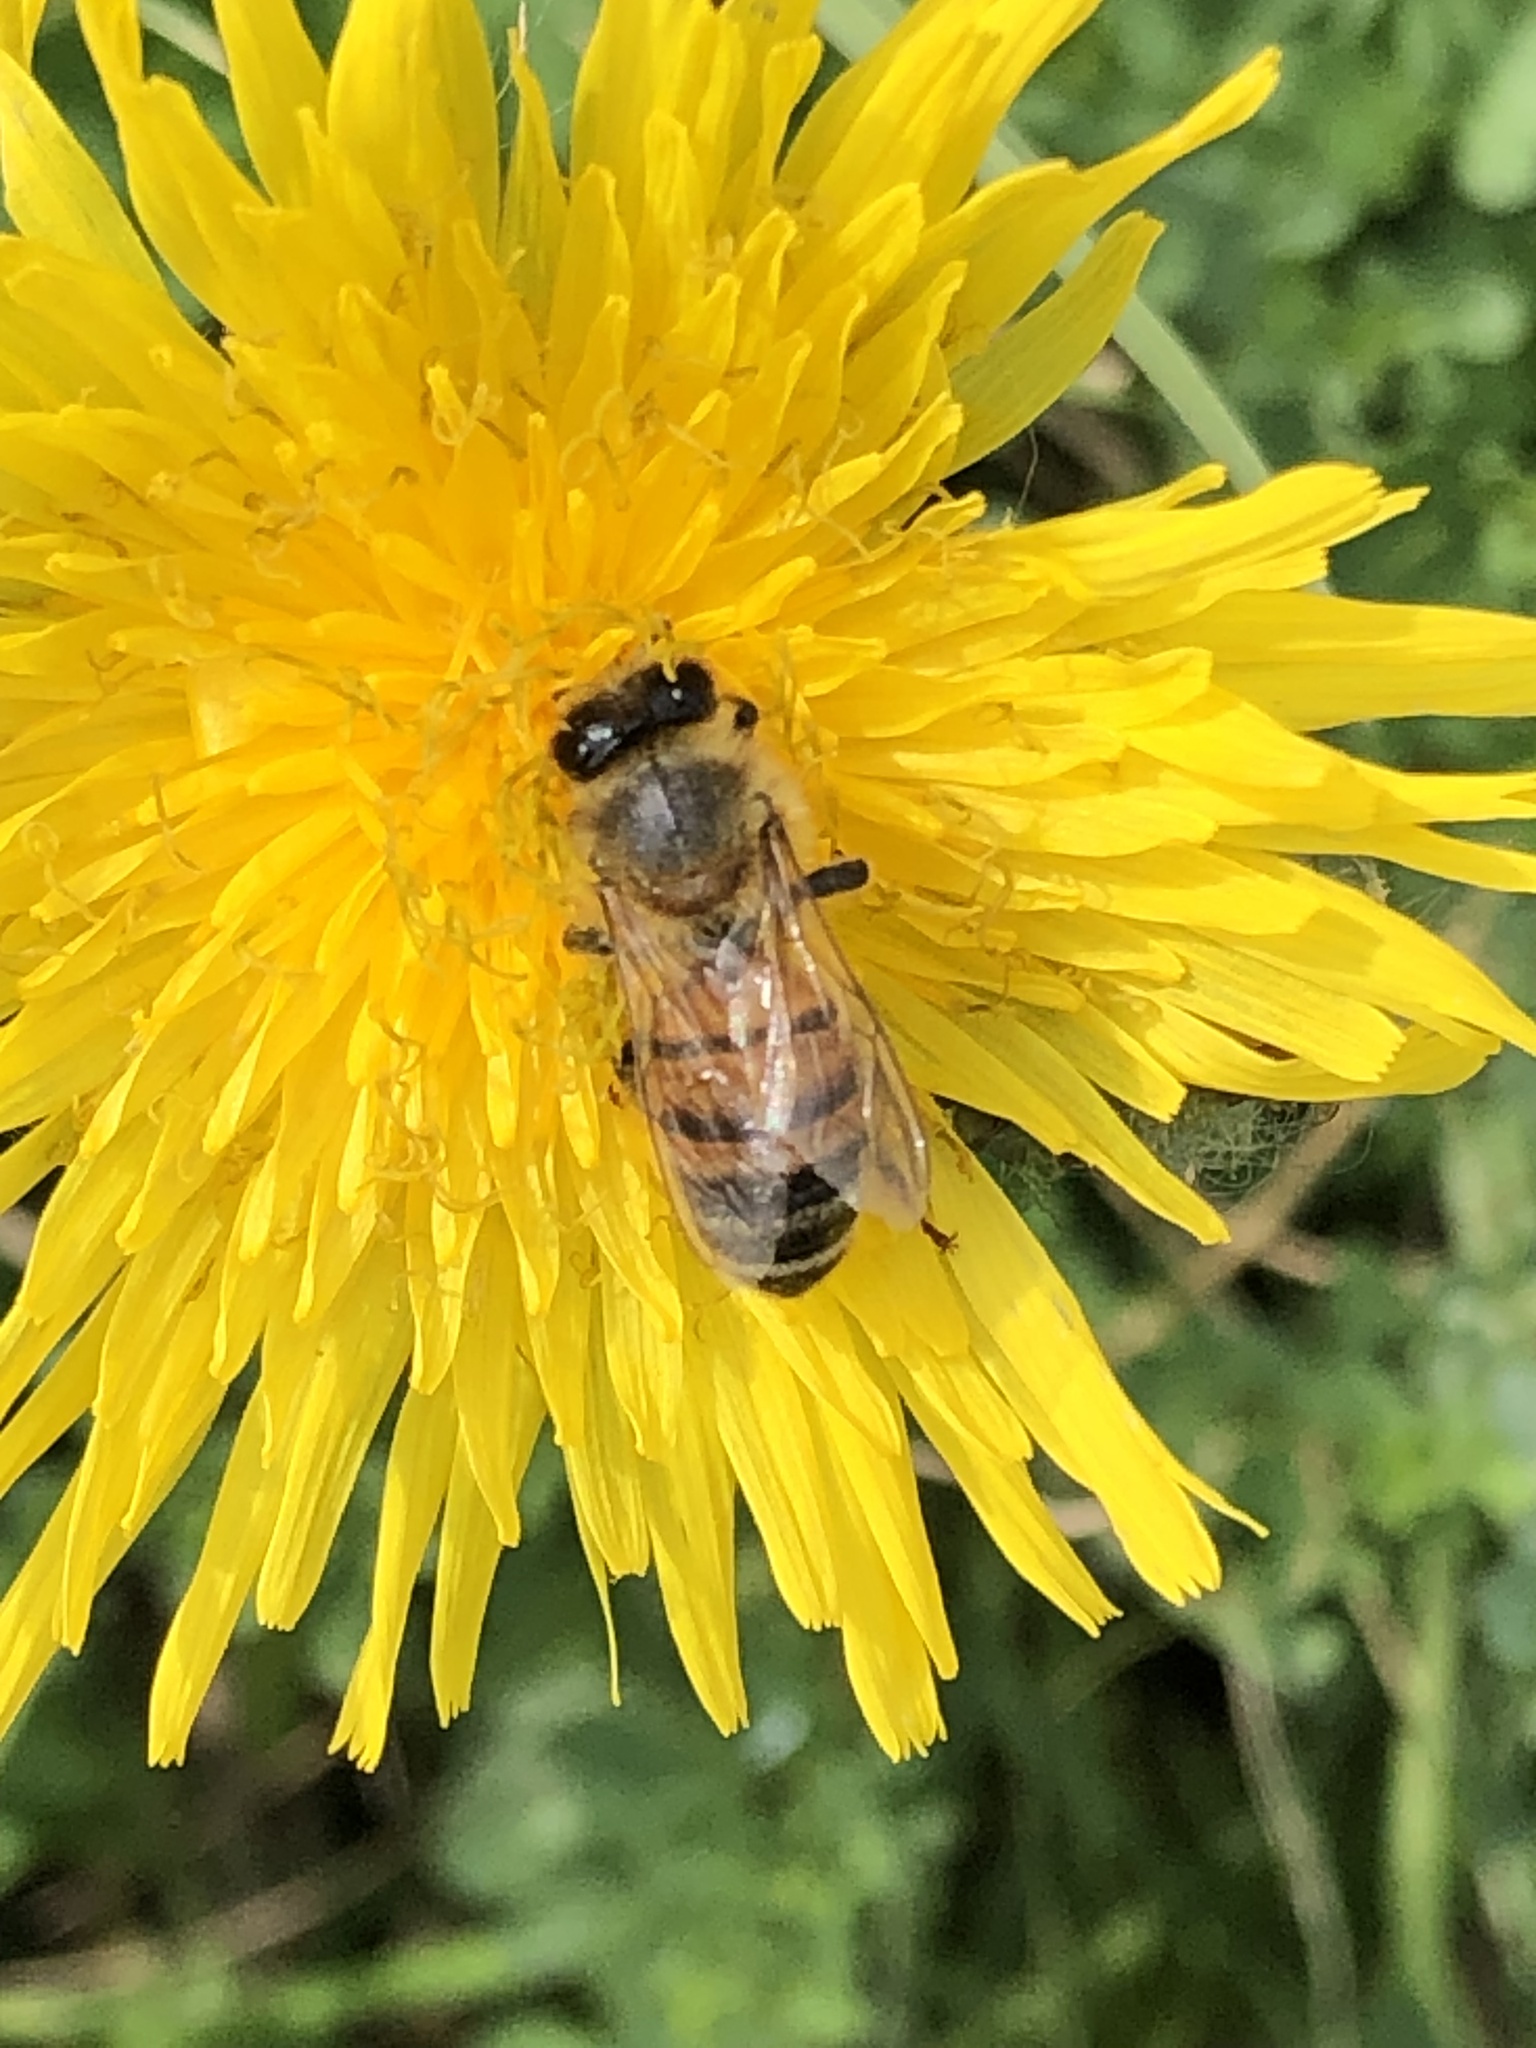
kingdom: Animalia
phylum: Arthropoda
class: Insecta
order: Hymenoptera
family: Apidae
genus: Apis
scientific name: Apis mellifera
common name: Honey bee
